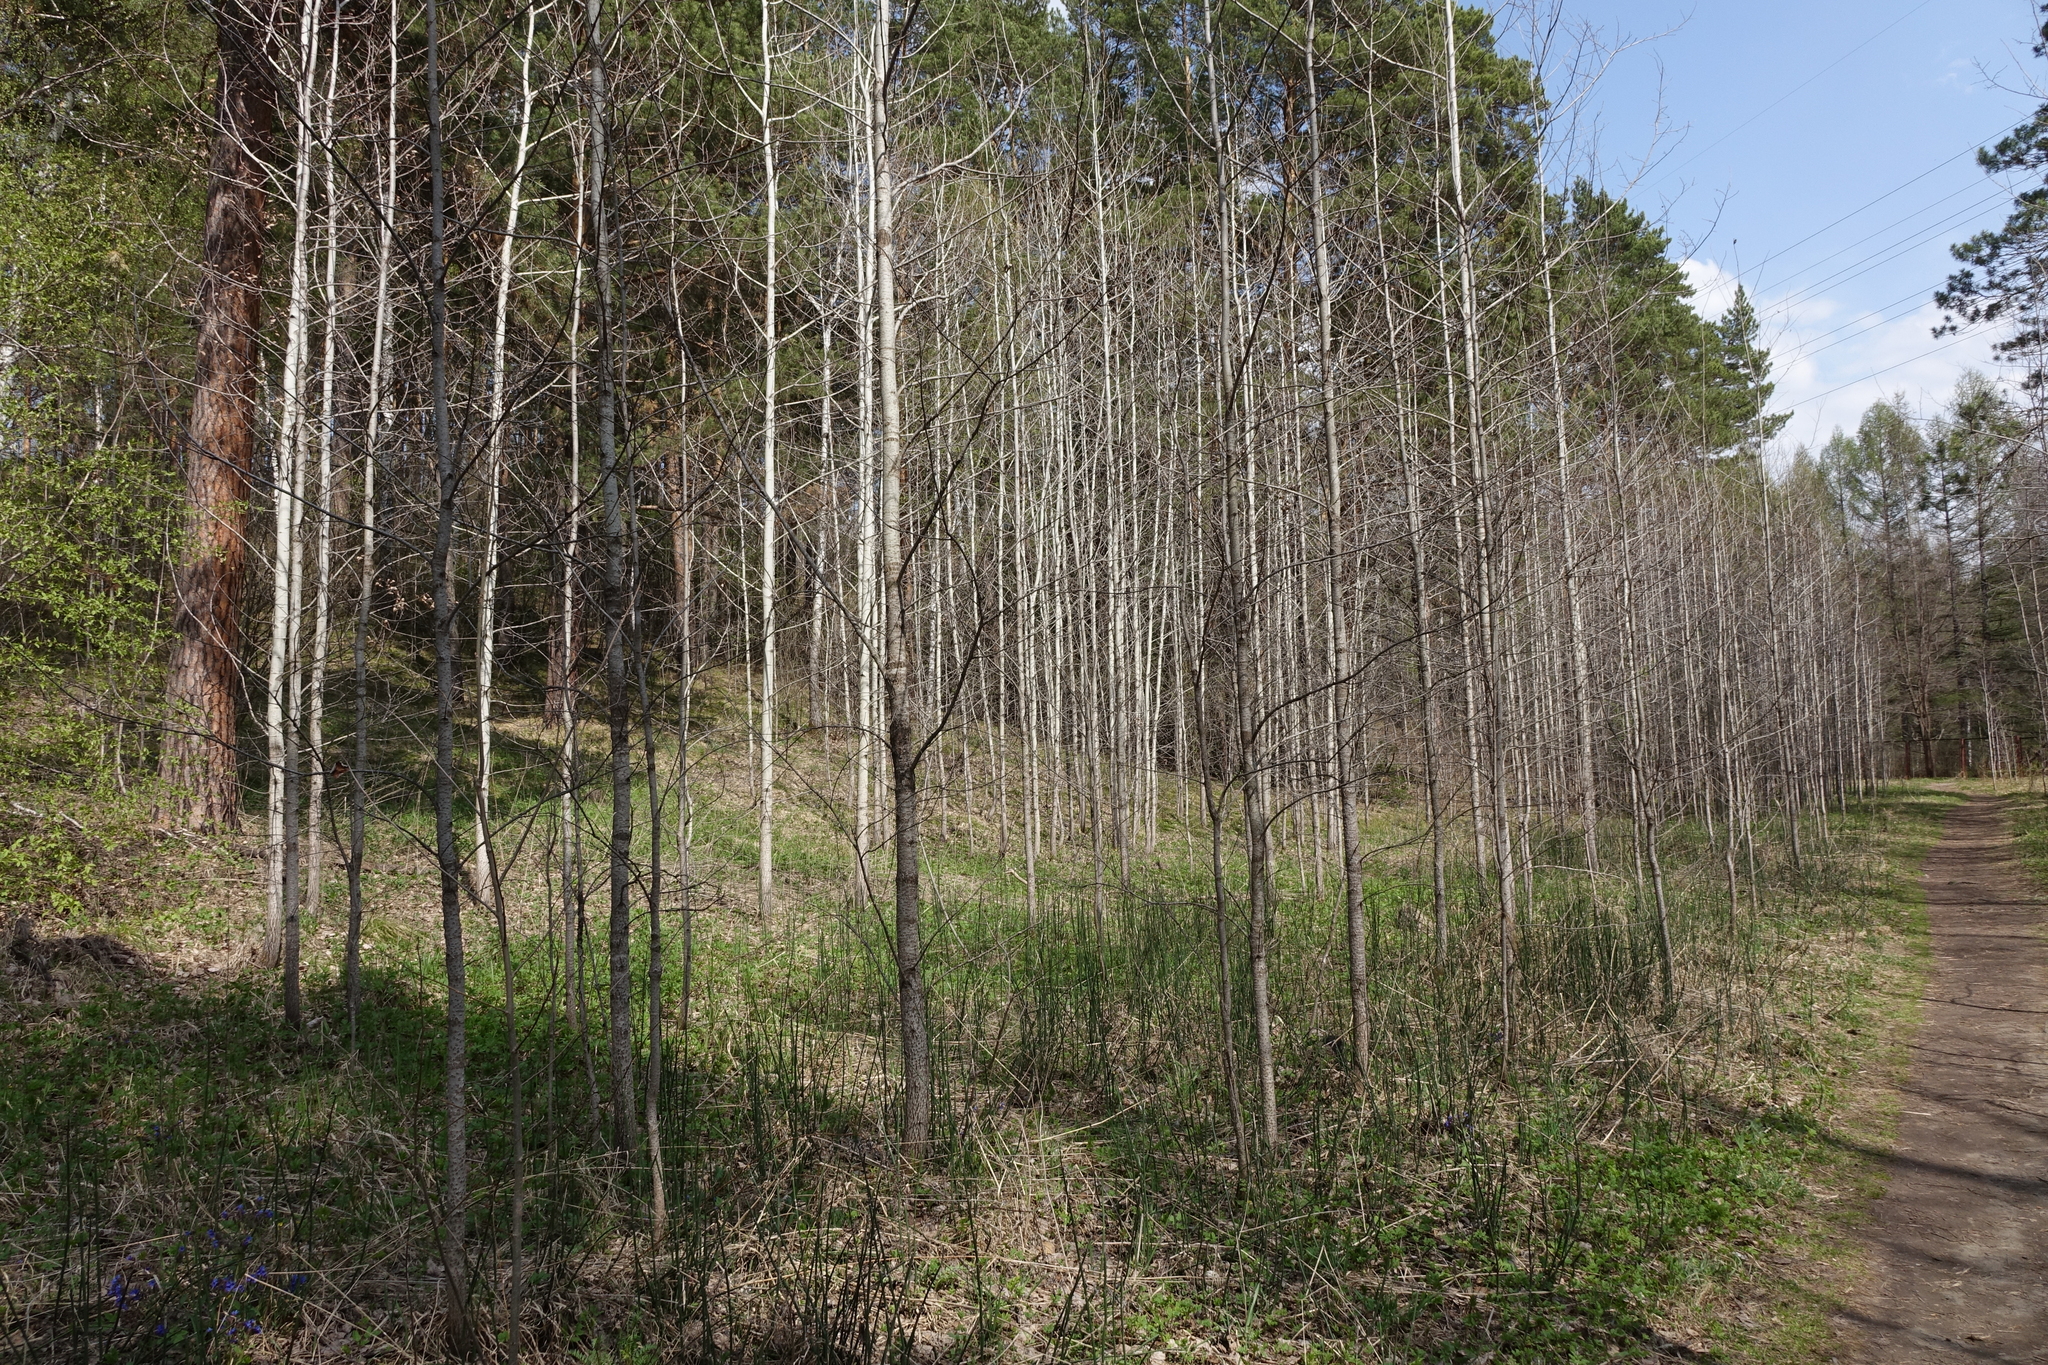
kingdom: Plantae
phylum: Tracheophyta
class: Polypodiopsida
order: Equisetales
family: Equisetaceae
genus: Equisetum
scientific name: Equisetum hyemale
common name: Rough horsetail
